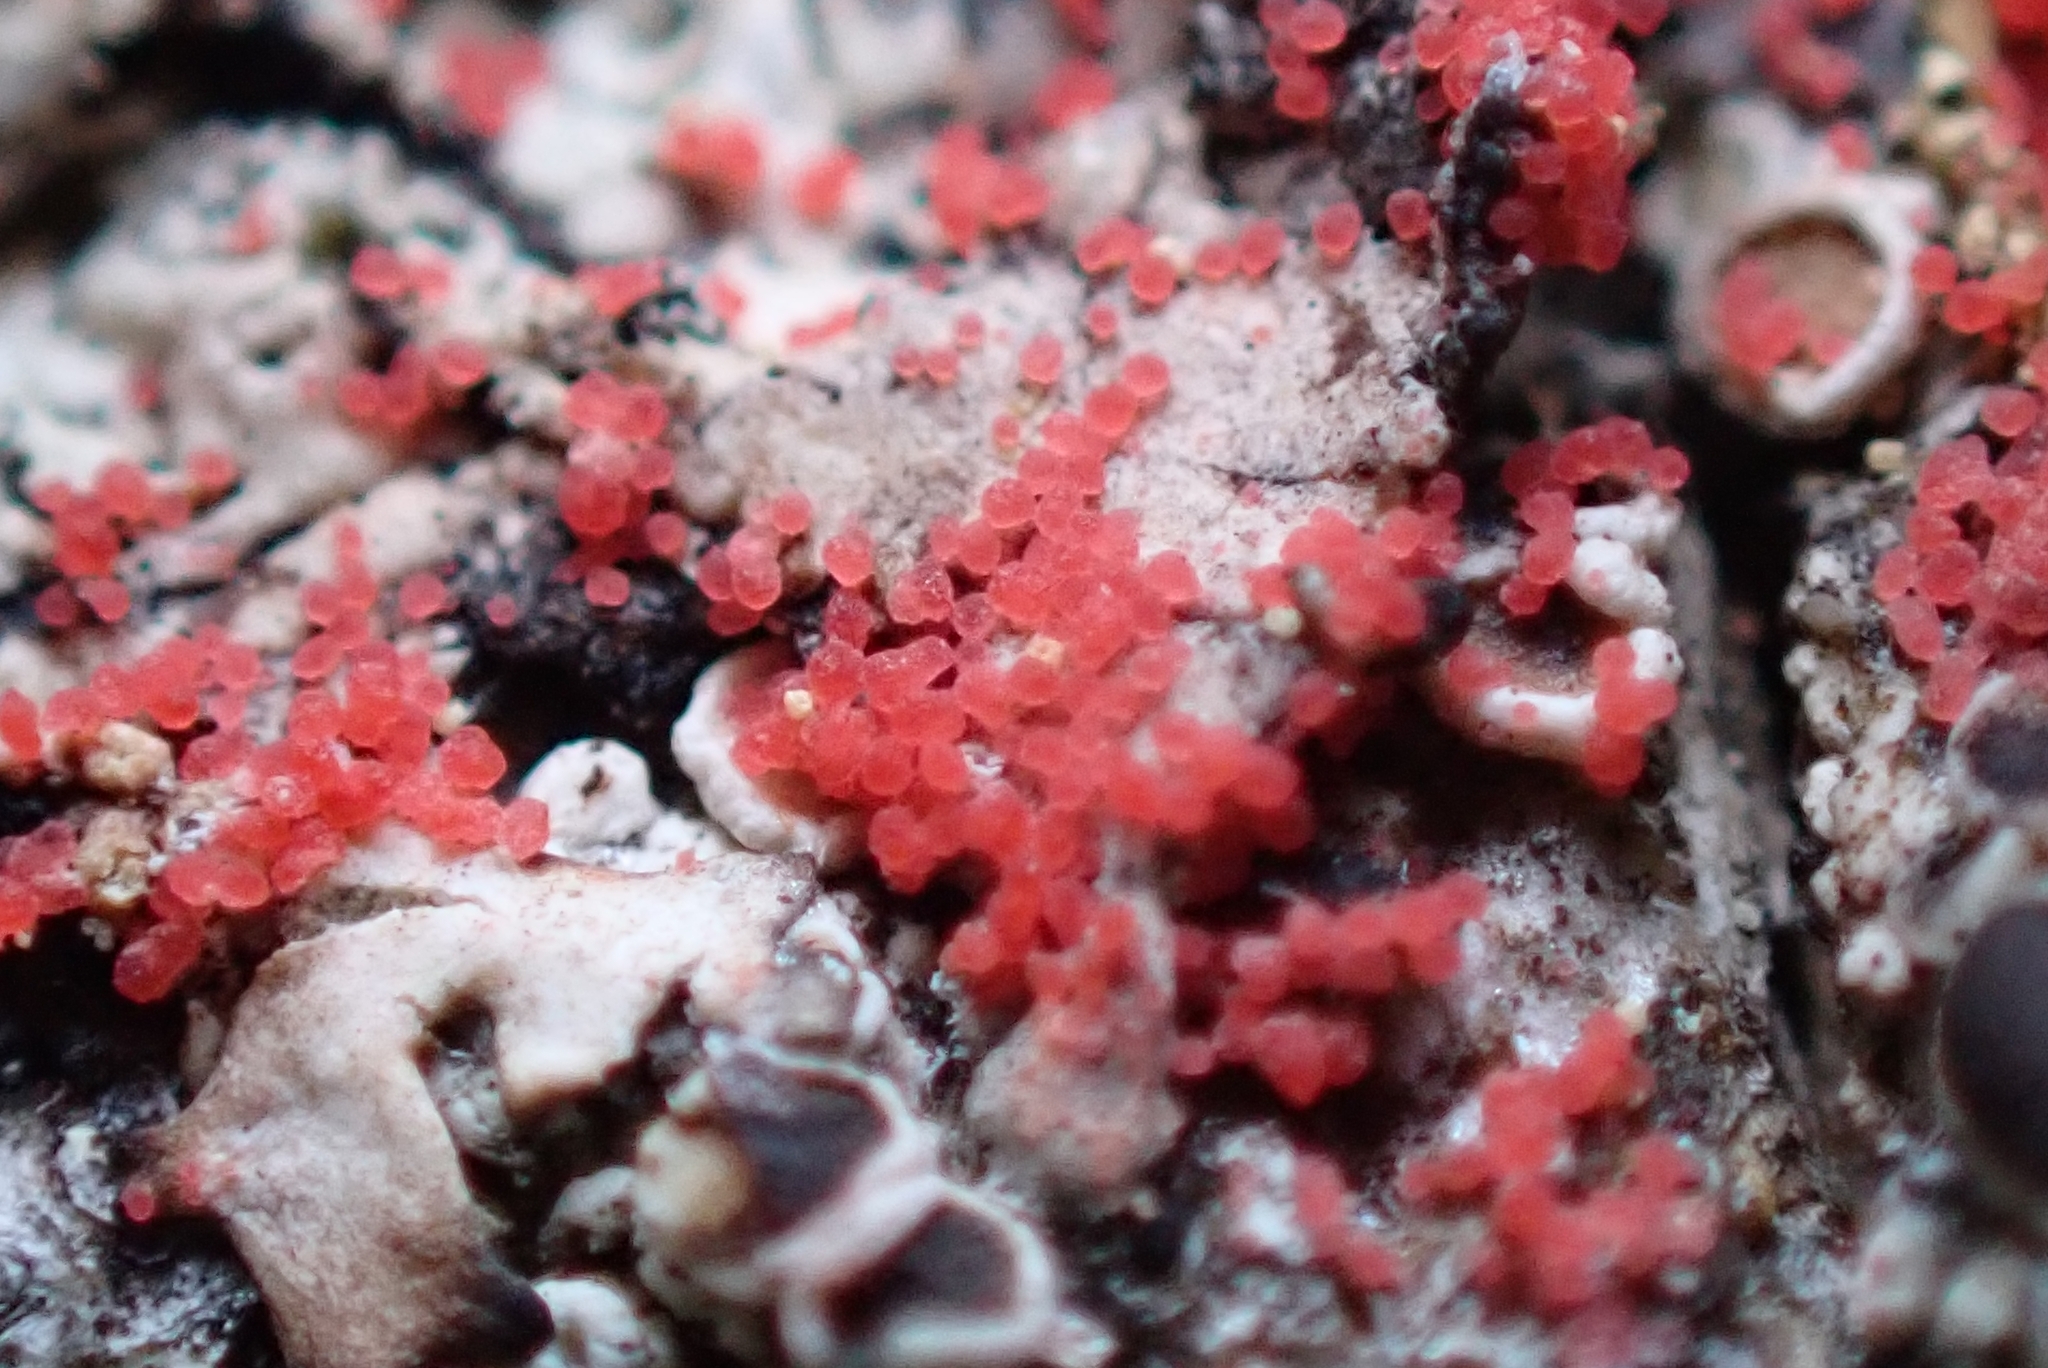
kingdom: Fungi
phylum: Basidiomycota
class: Agaricomycetes
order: Corticiales
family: Corticiaceae
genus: Marchandiomyces
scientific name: Marchandiomyces corallinus
